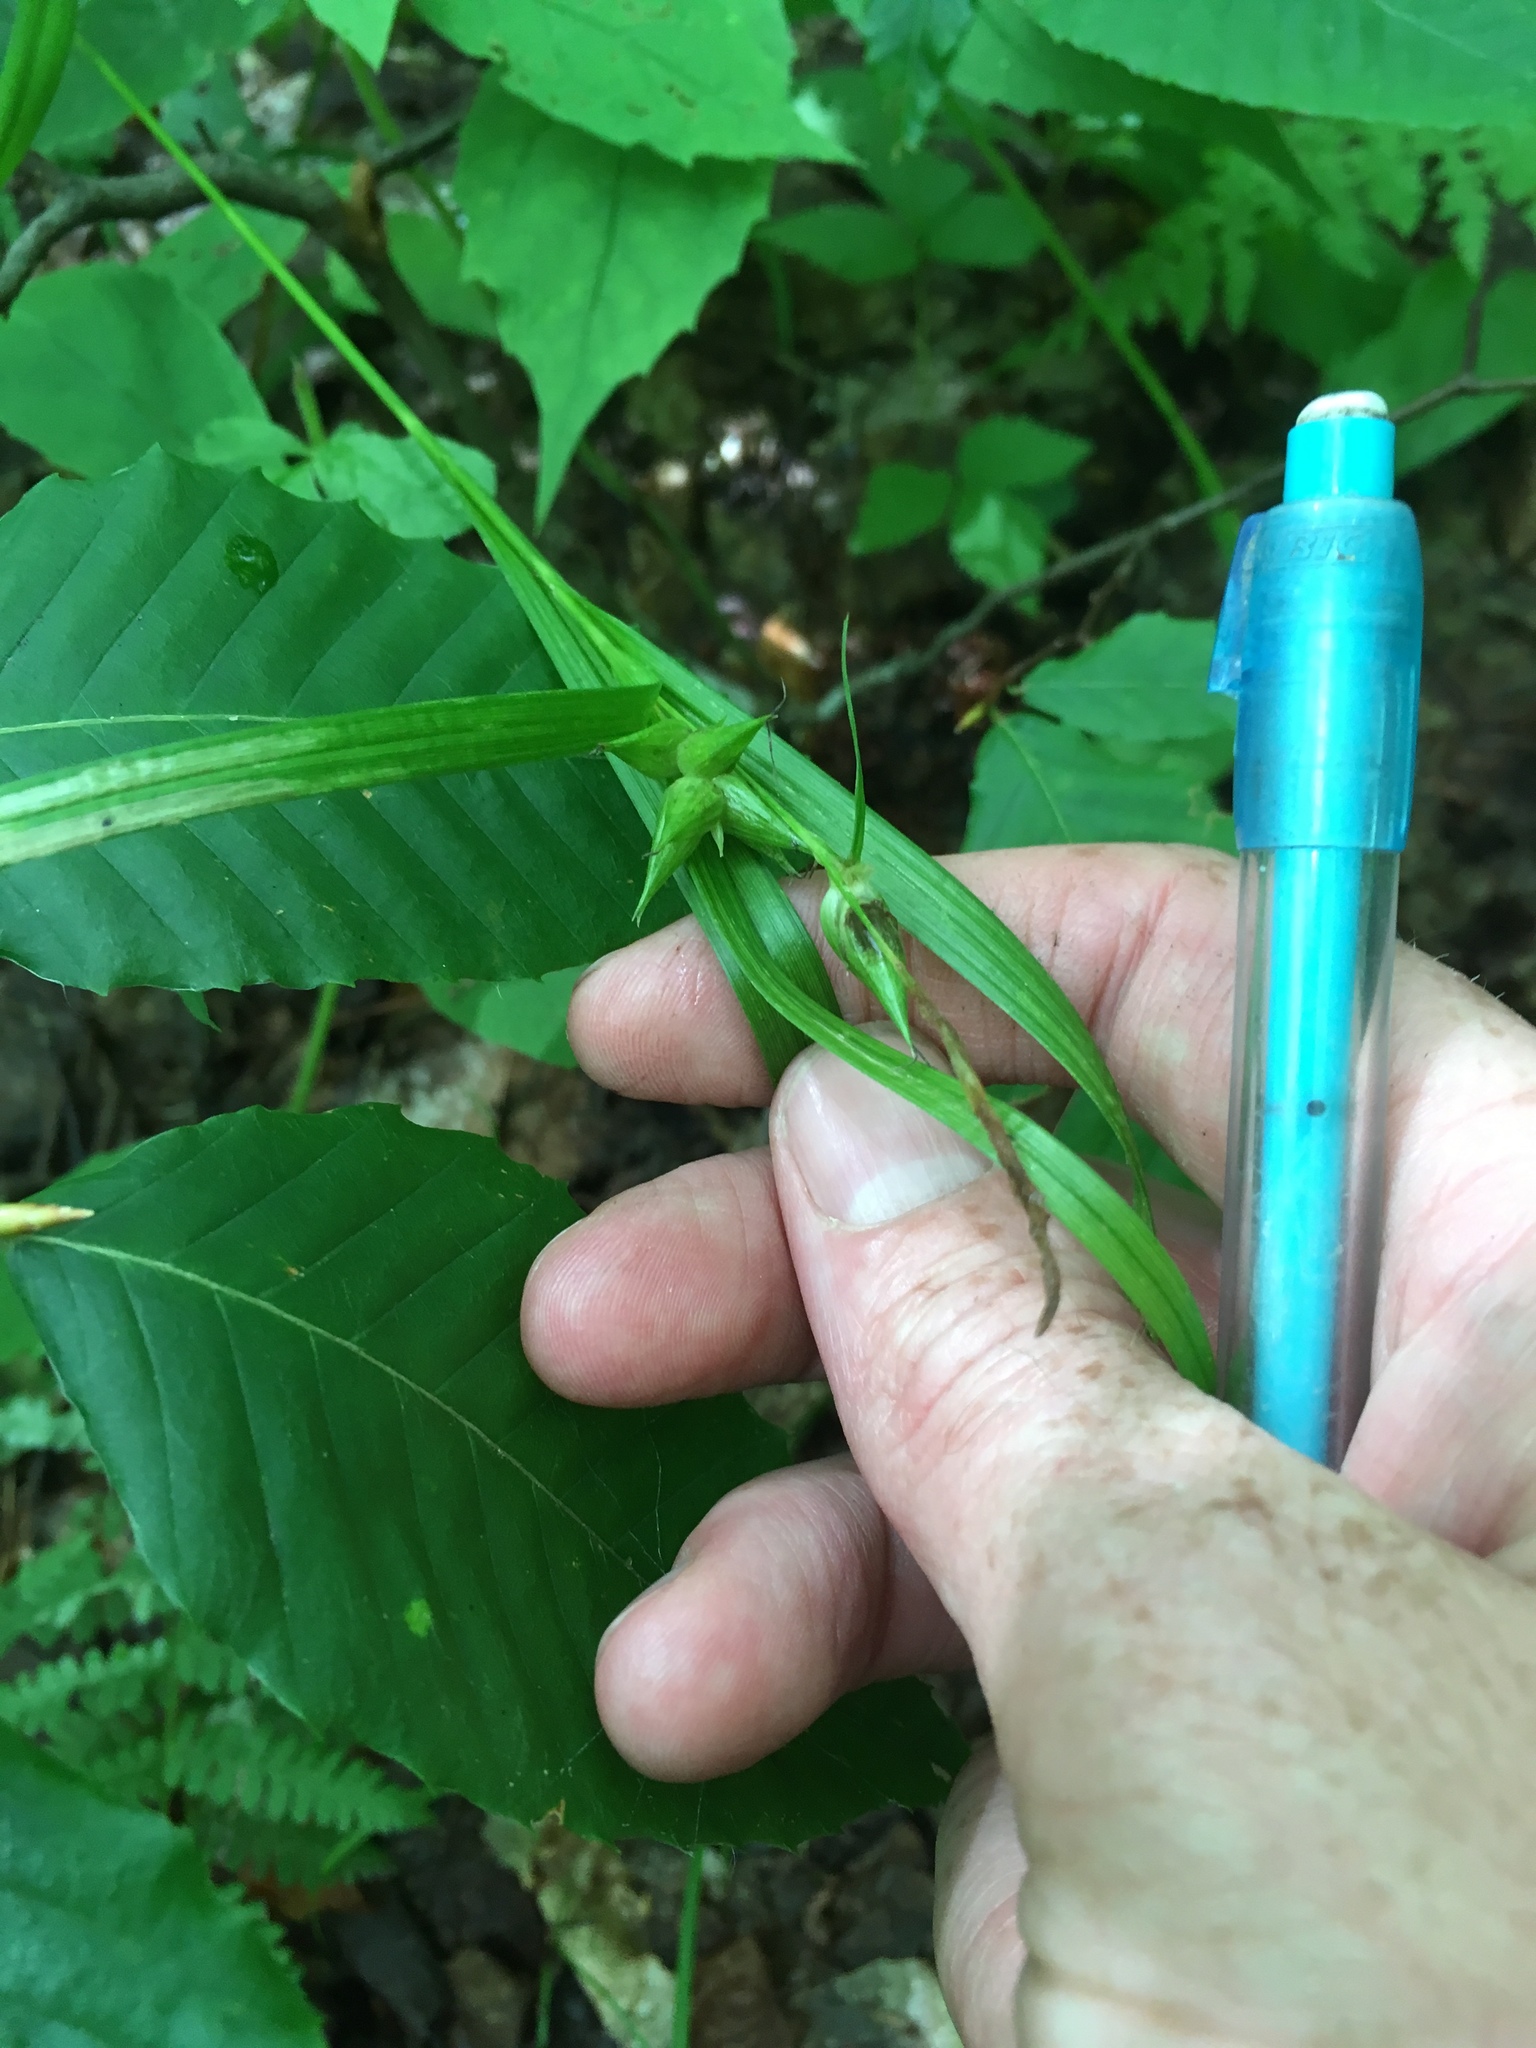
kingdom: Plantae
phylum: Tracheophyta
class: Liliopsida
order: Poales
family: Cyperaceae
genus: Carex
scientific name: Carex intumescens
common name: Greater bladder sedge
